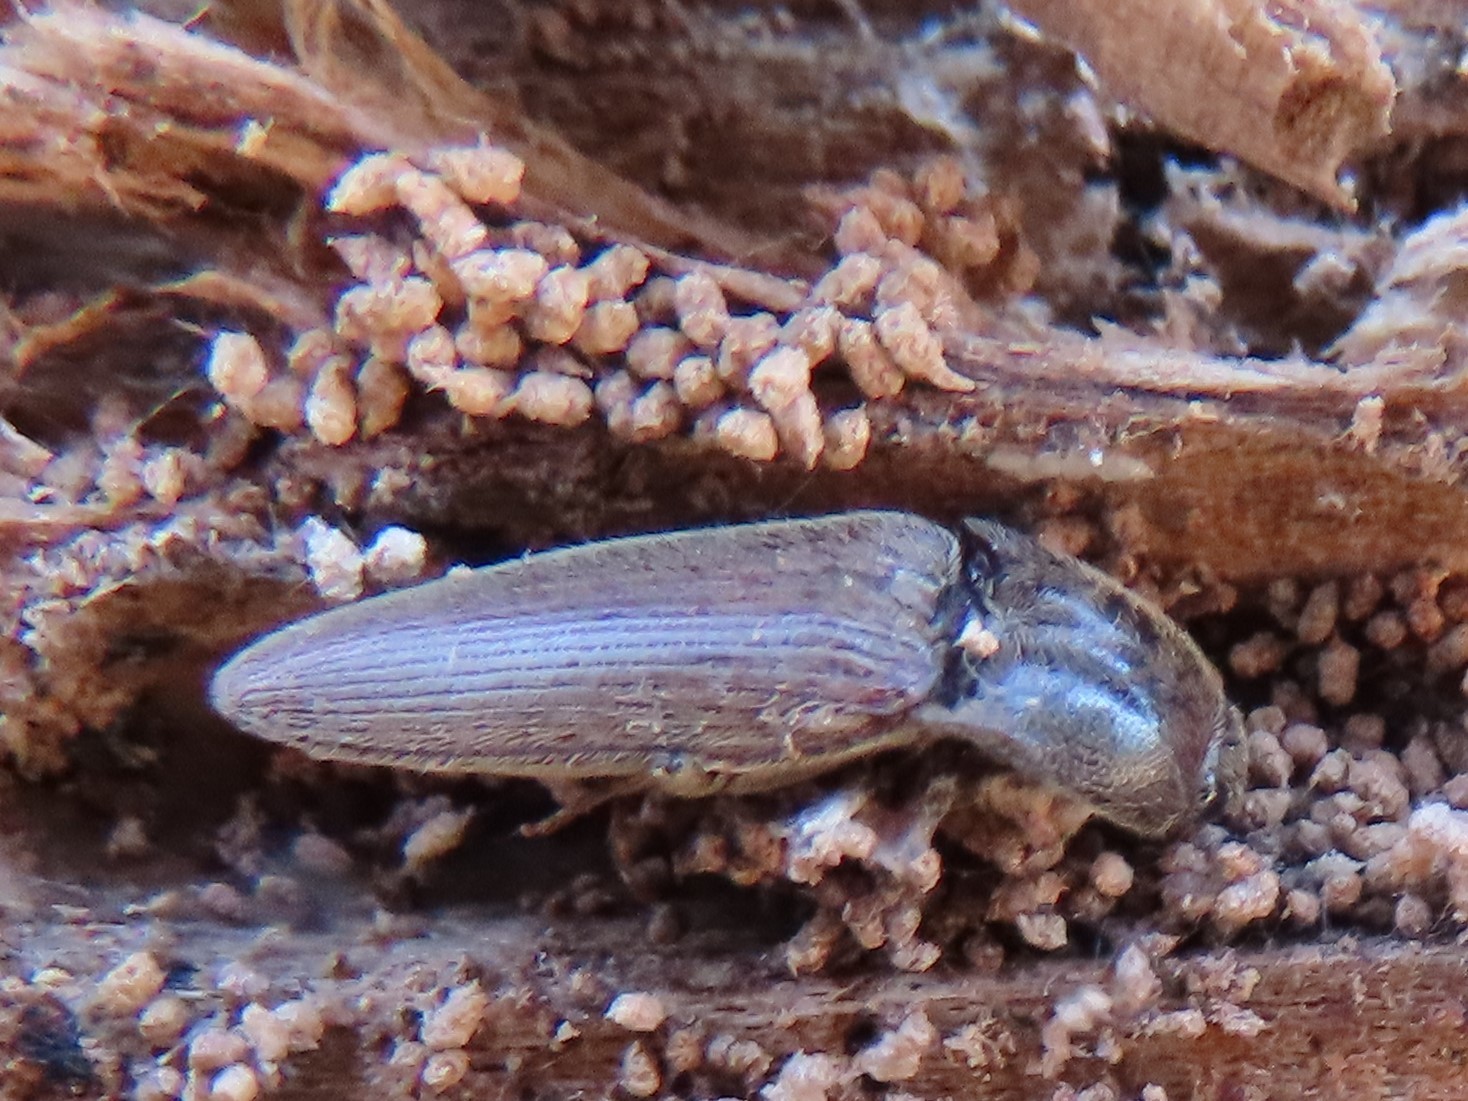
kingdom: Animalia
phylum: Arthropoda
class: Insecta
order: Coleoptera
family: Elateridae
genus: Melanotus
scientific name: Melanotus
